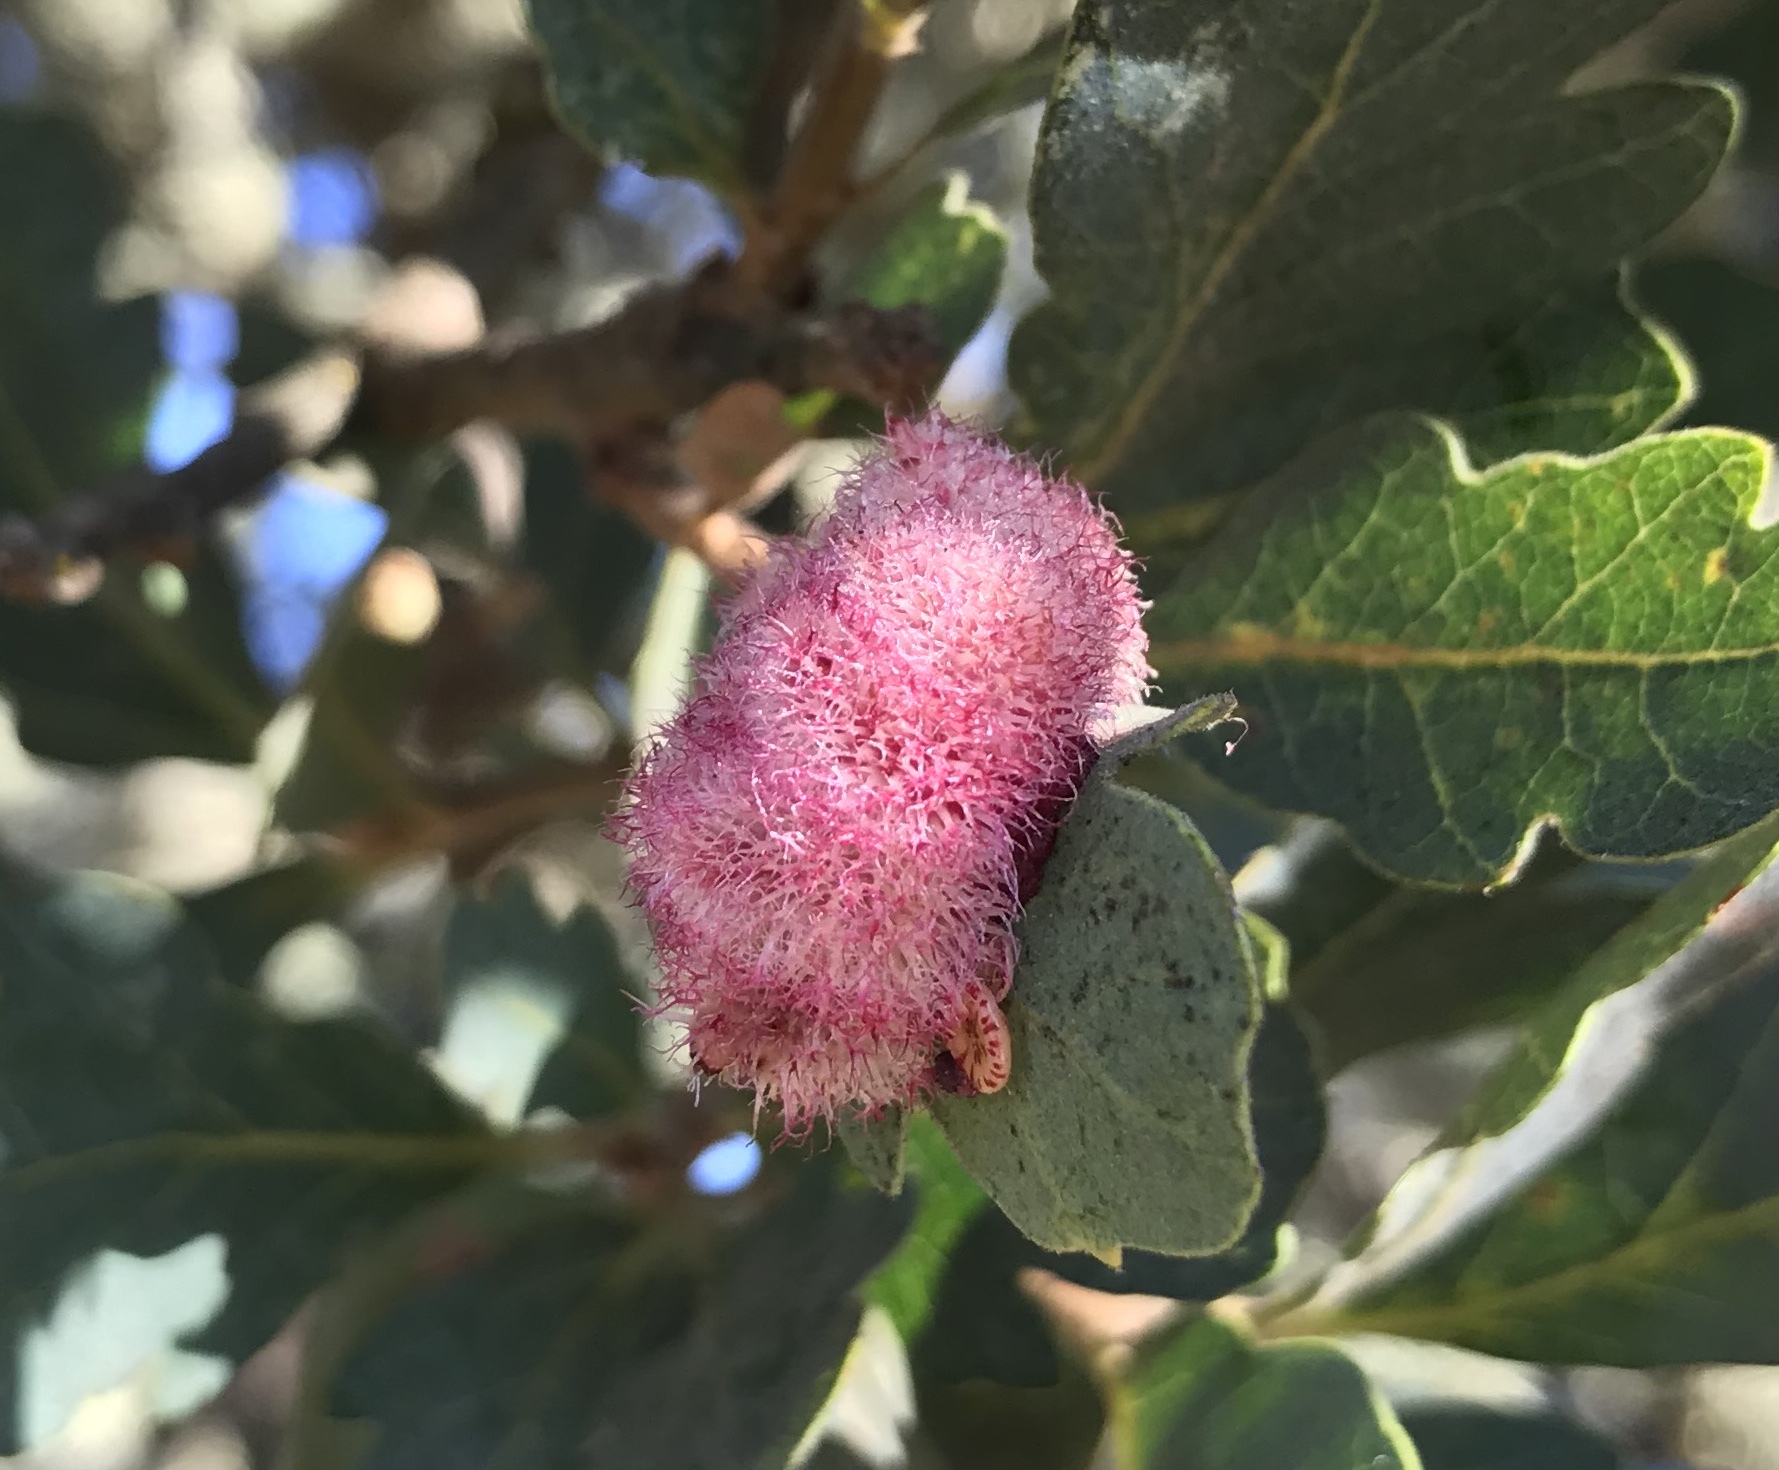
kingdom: Animalia
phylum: Arthropoda
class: Insecta
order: Hymenoptera
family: Cynipidae
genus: Andricus
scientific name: Andricus
